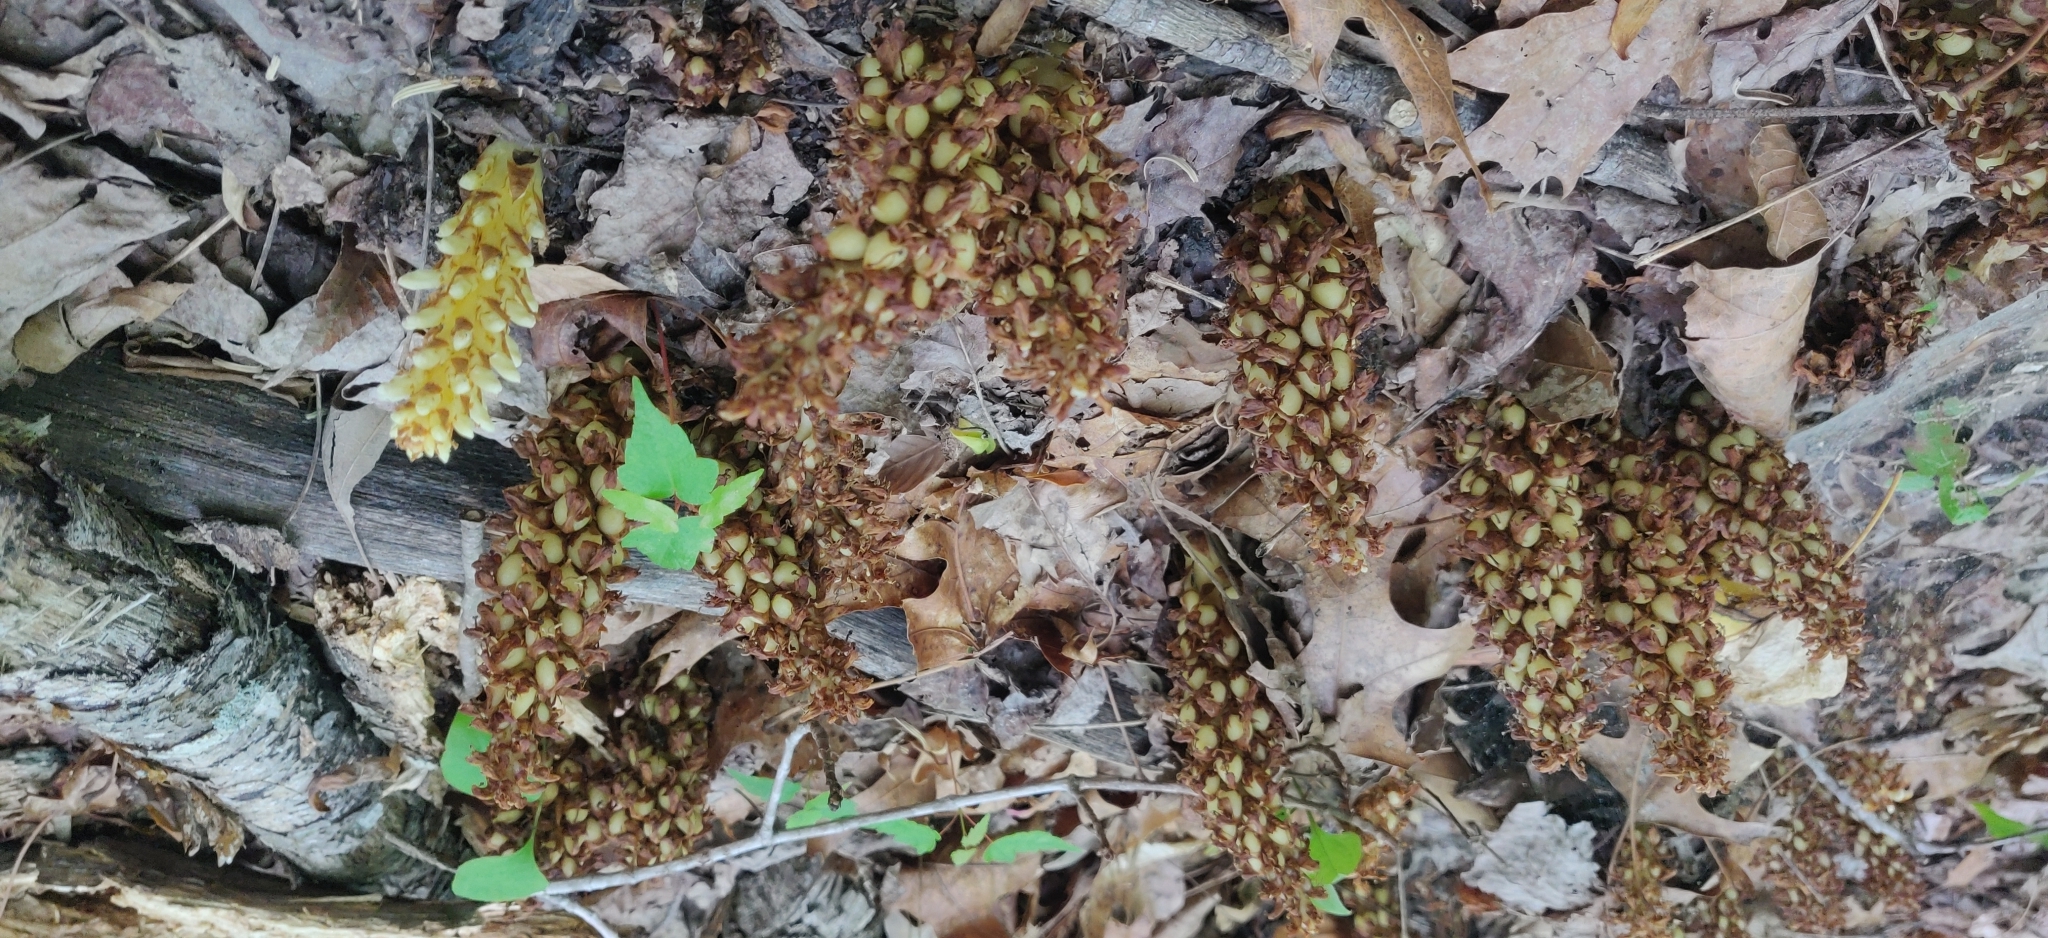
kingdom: Plantae
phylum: Tracheophyta
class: Magnoliopsida
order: Lamiales
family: Orobanchaceae
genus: Conopholis
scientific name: Conopholis americana
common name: American cancer-root
